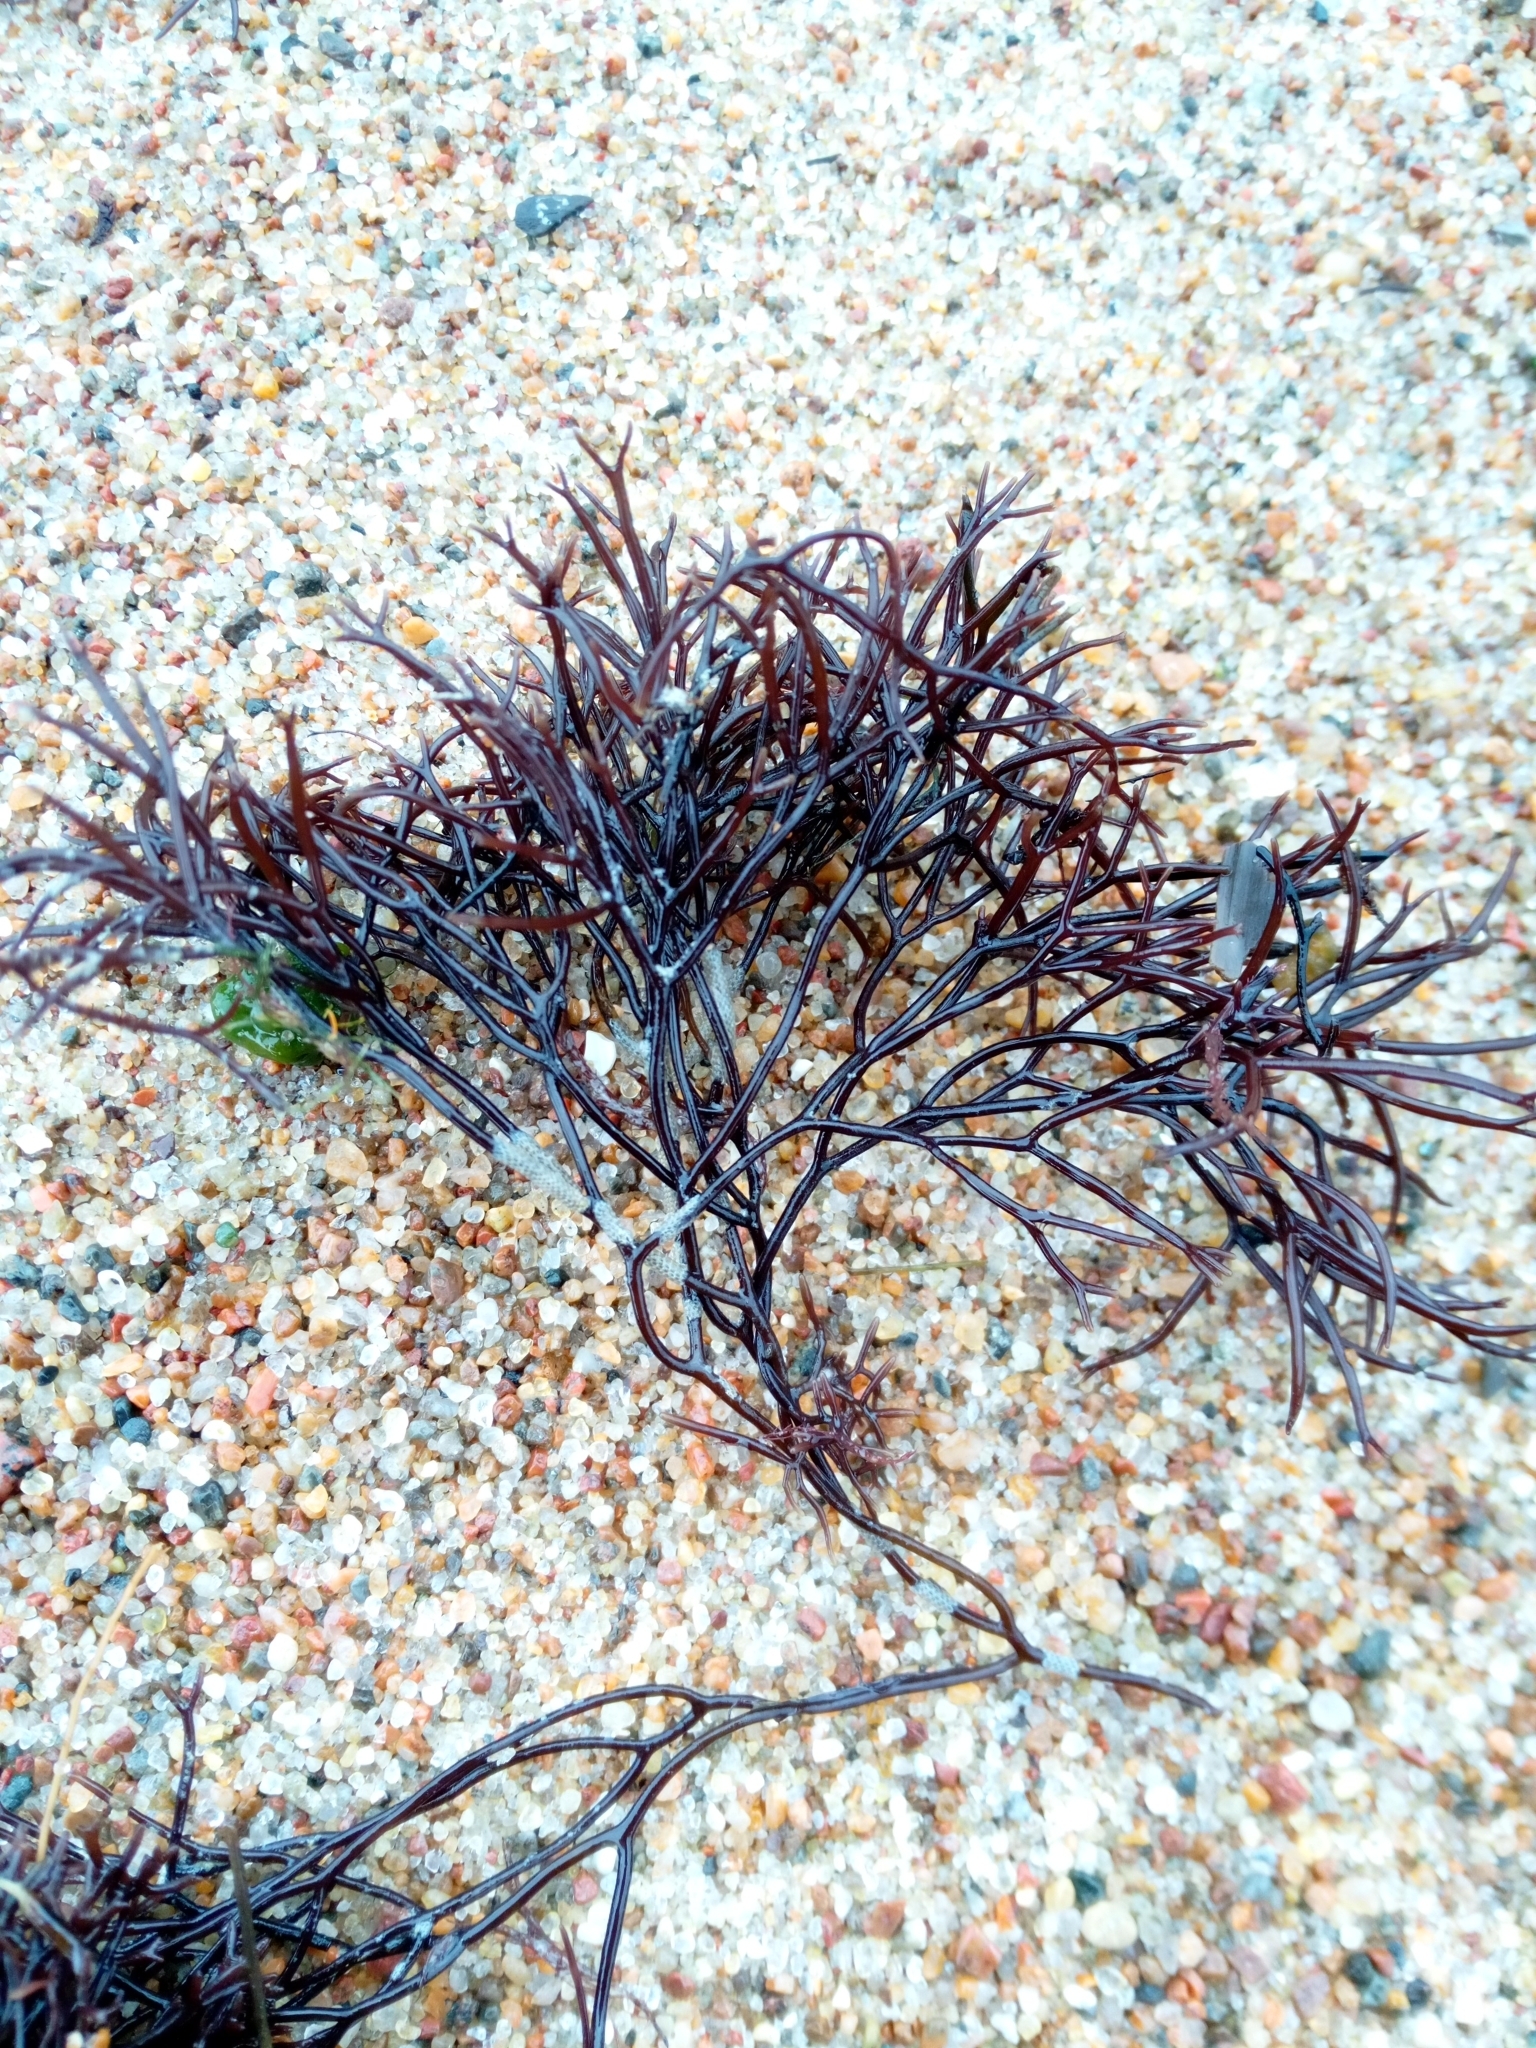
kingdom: Plantae
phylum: Rhodophyta
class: Florideophyceae
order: Gigartinales
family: Furcellariaceae
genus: Furcellaria
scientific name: Furcellaria lumbricalis
